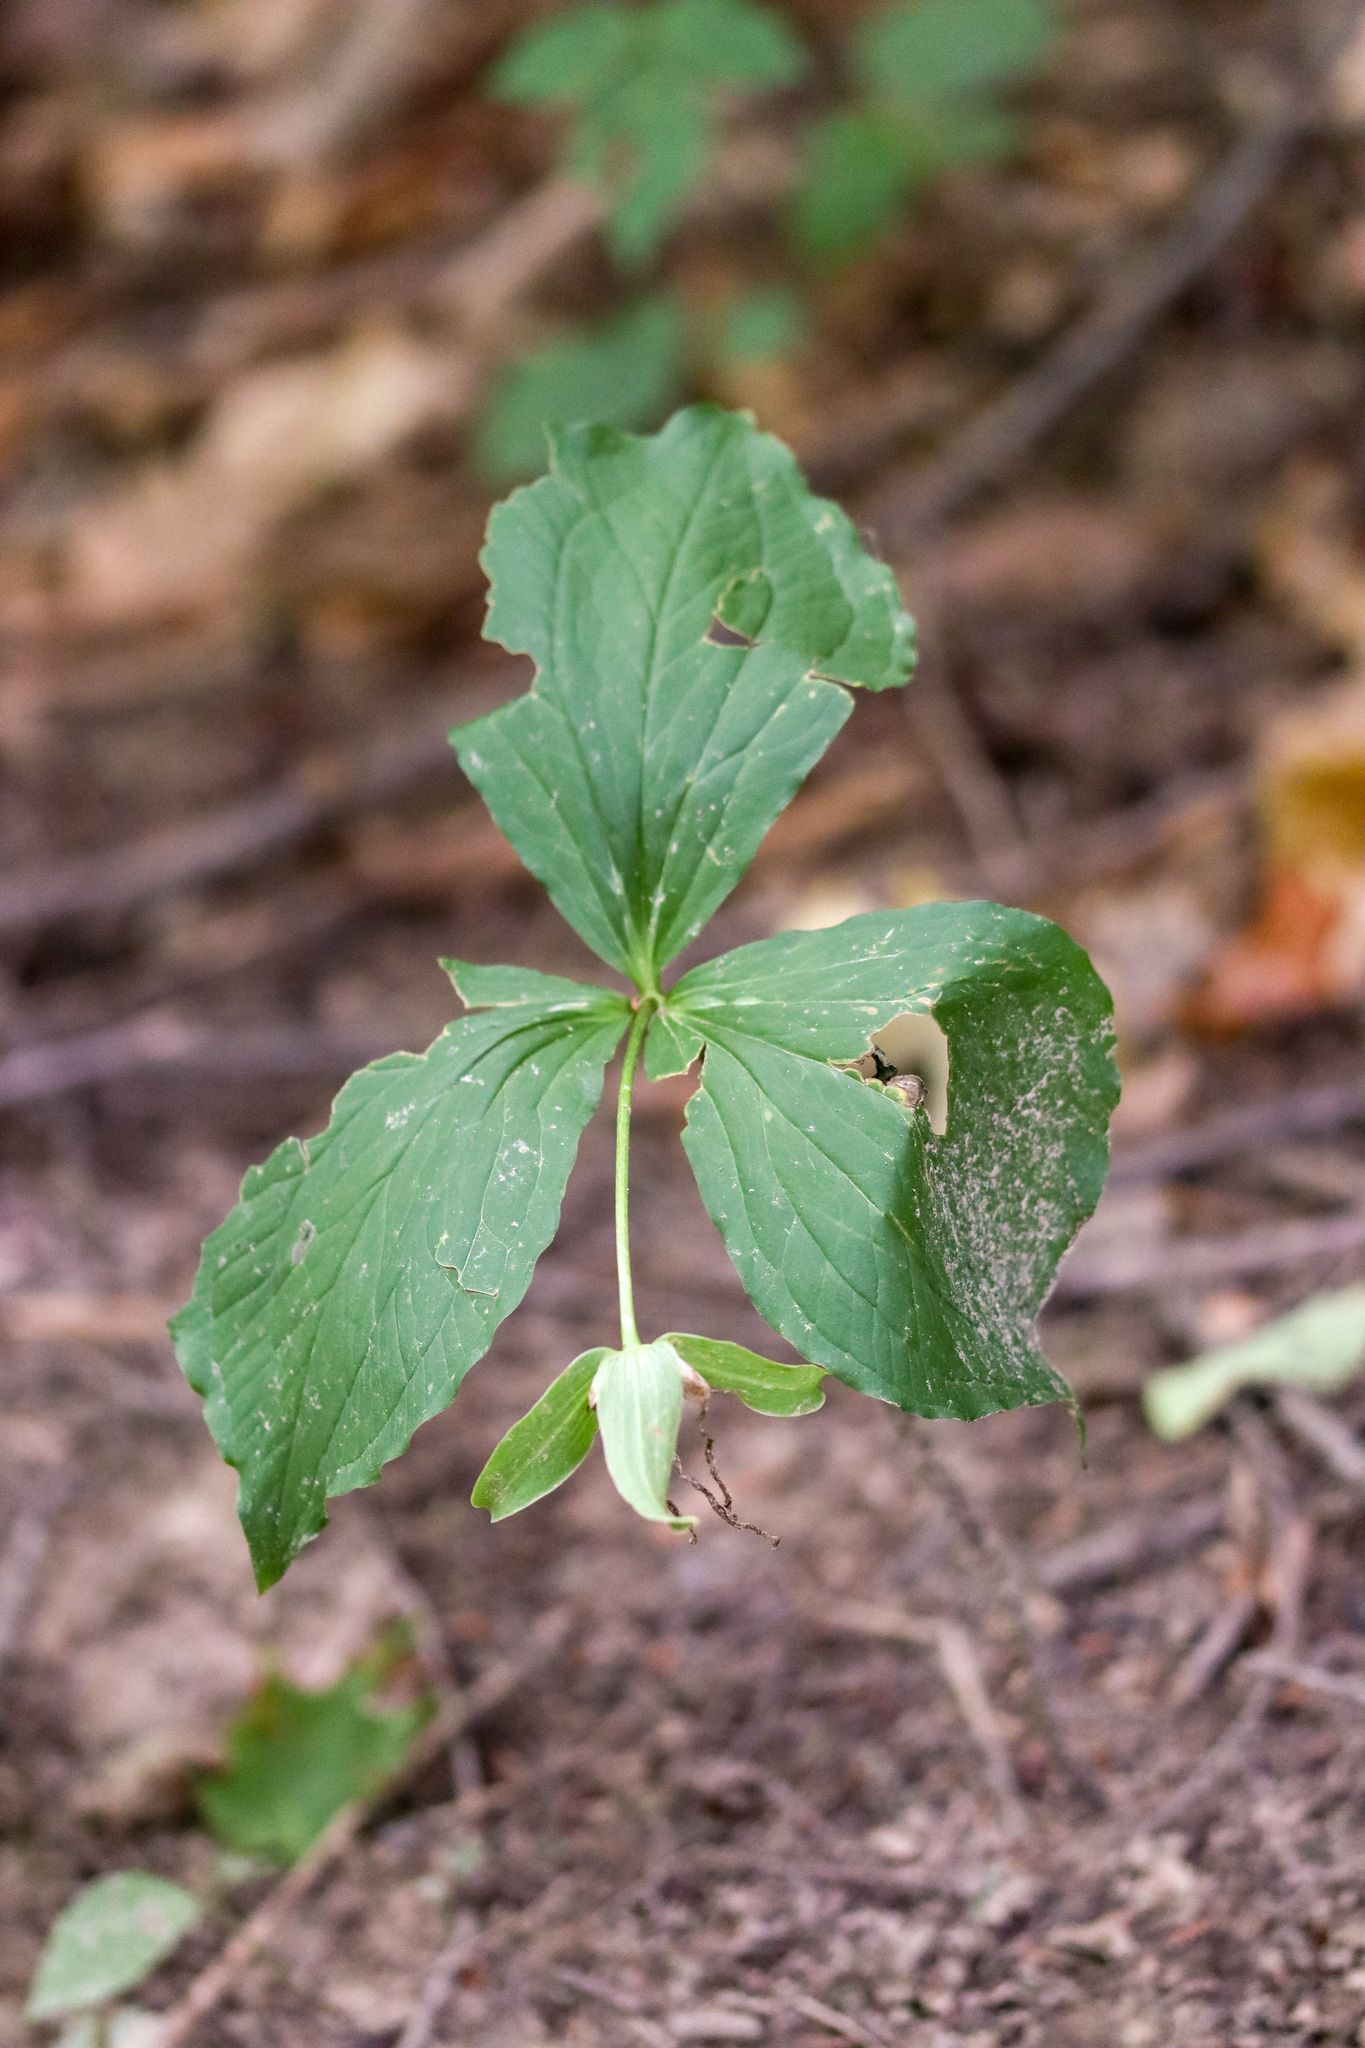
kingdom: Plantae
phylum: Tracheophyta
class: Liliopsida
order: Liliales
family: Melanthiaceae
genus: Trillium
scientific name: Trillium grandiflorum
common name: Great white trillium
